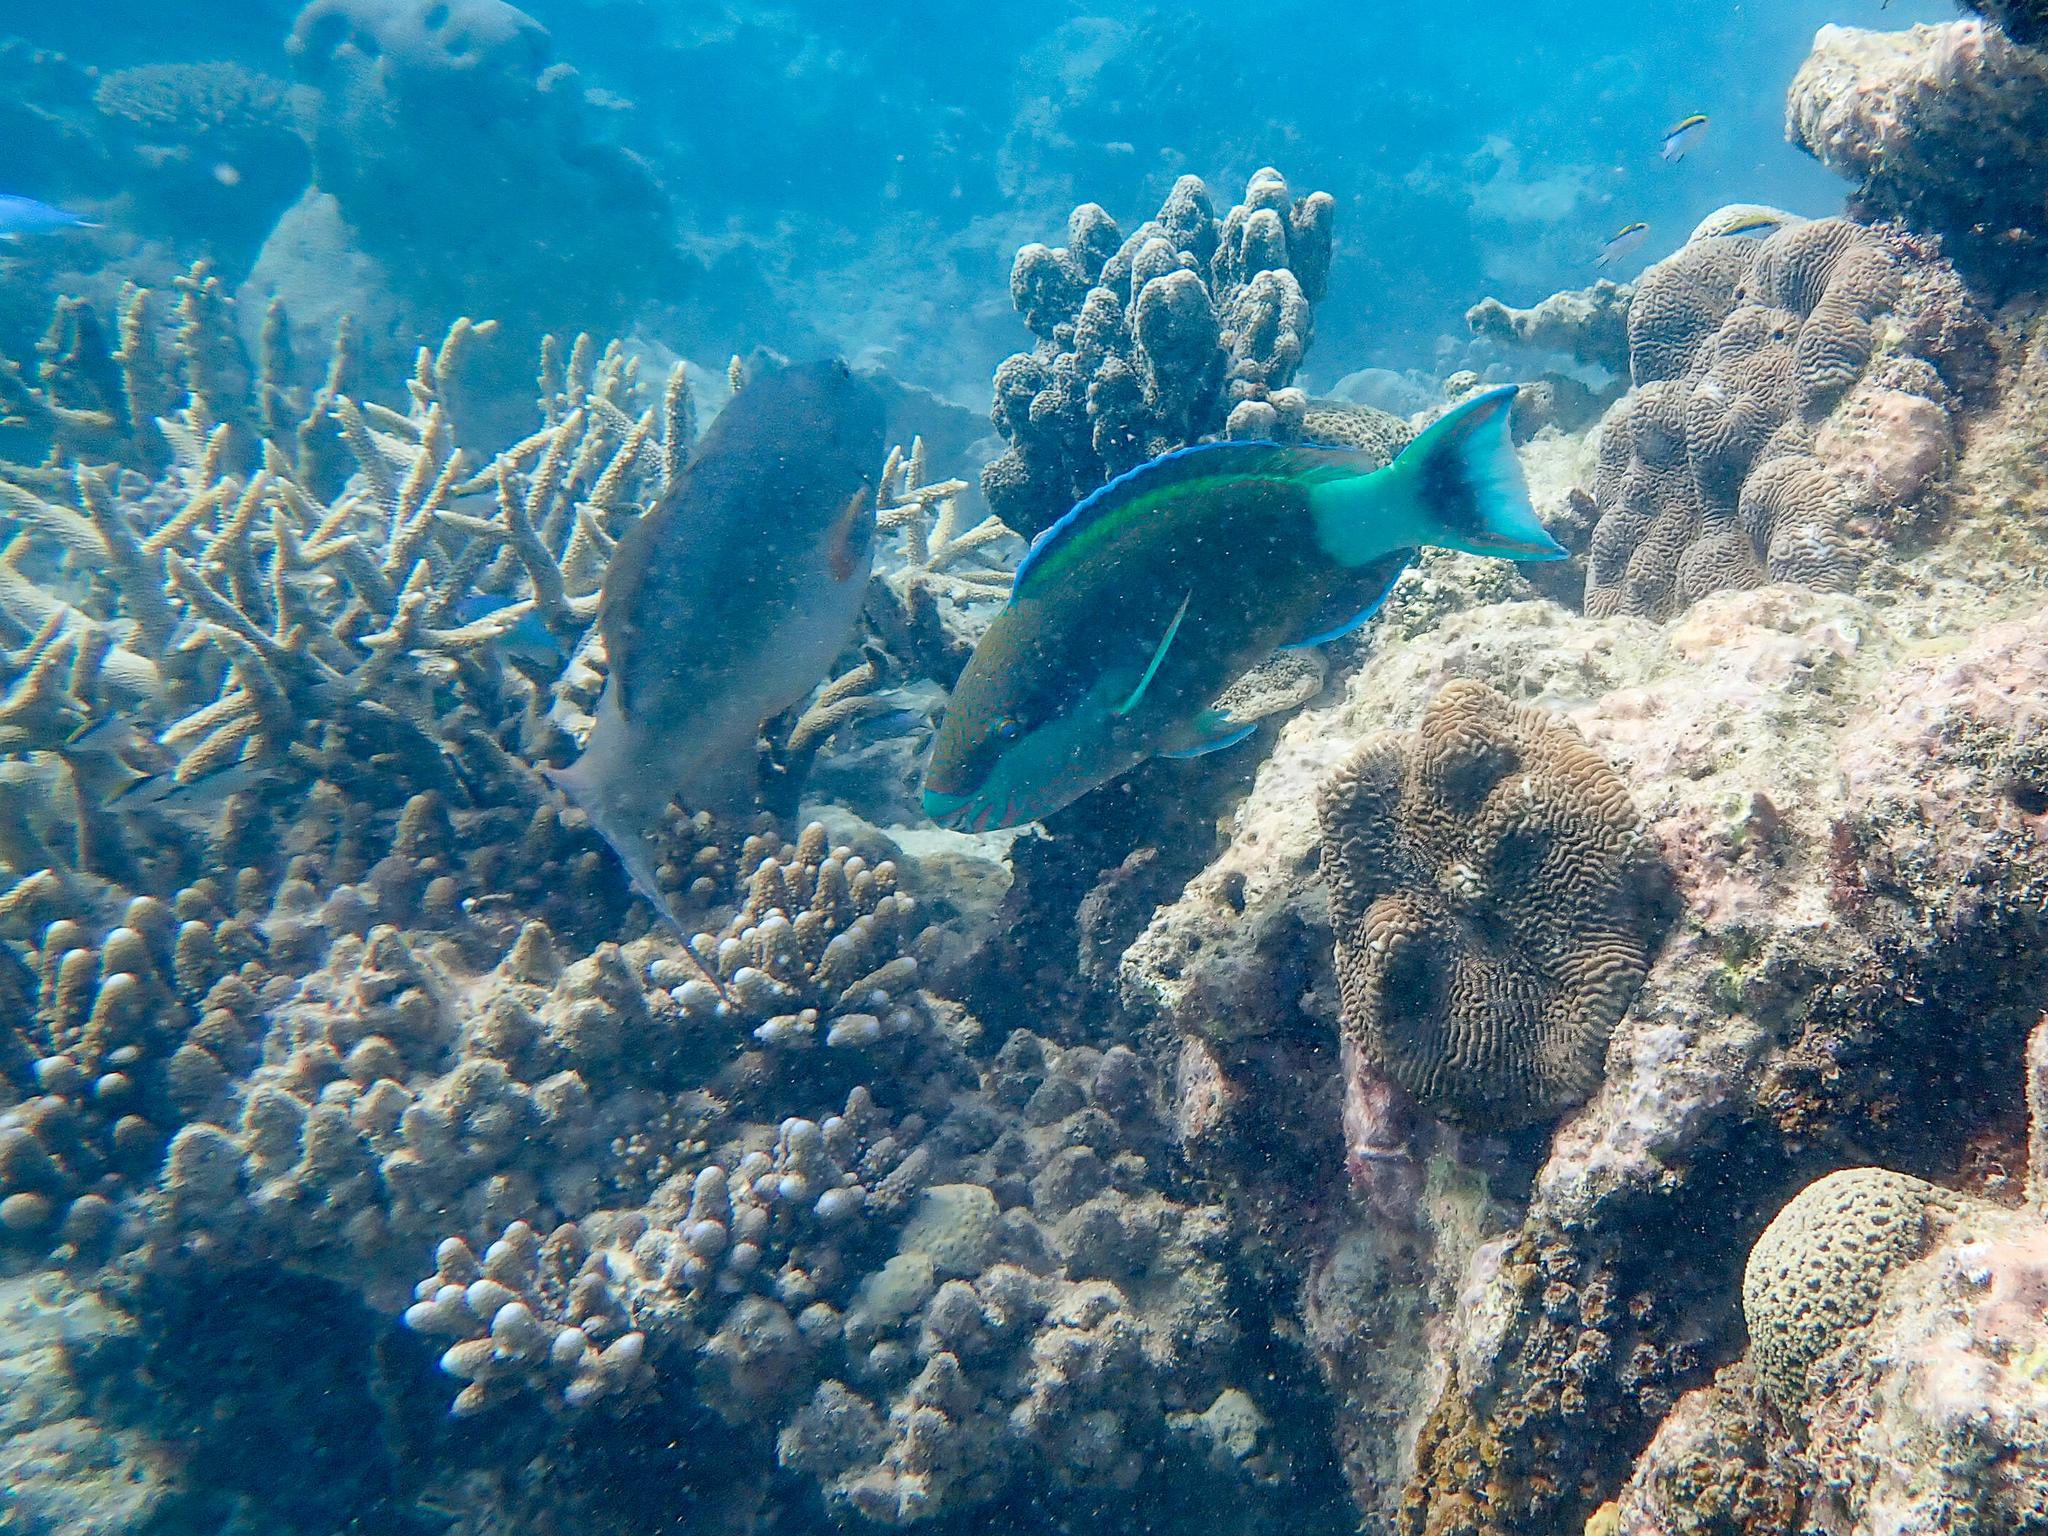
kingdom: Animalia
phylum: Chordata
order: Perciformes
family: Scaridae
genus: Scarus
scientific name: Scarus frenatus
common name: Bridled parrotfish
